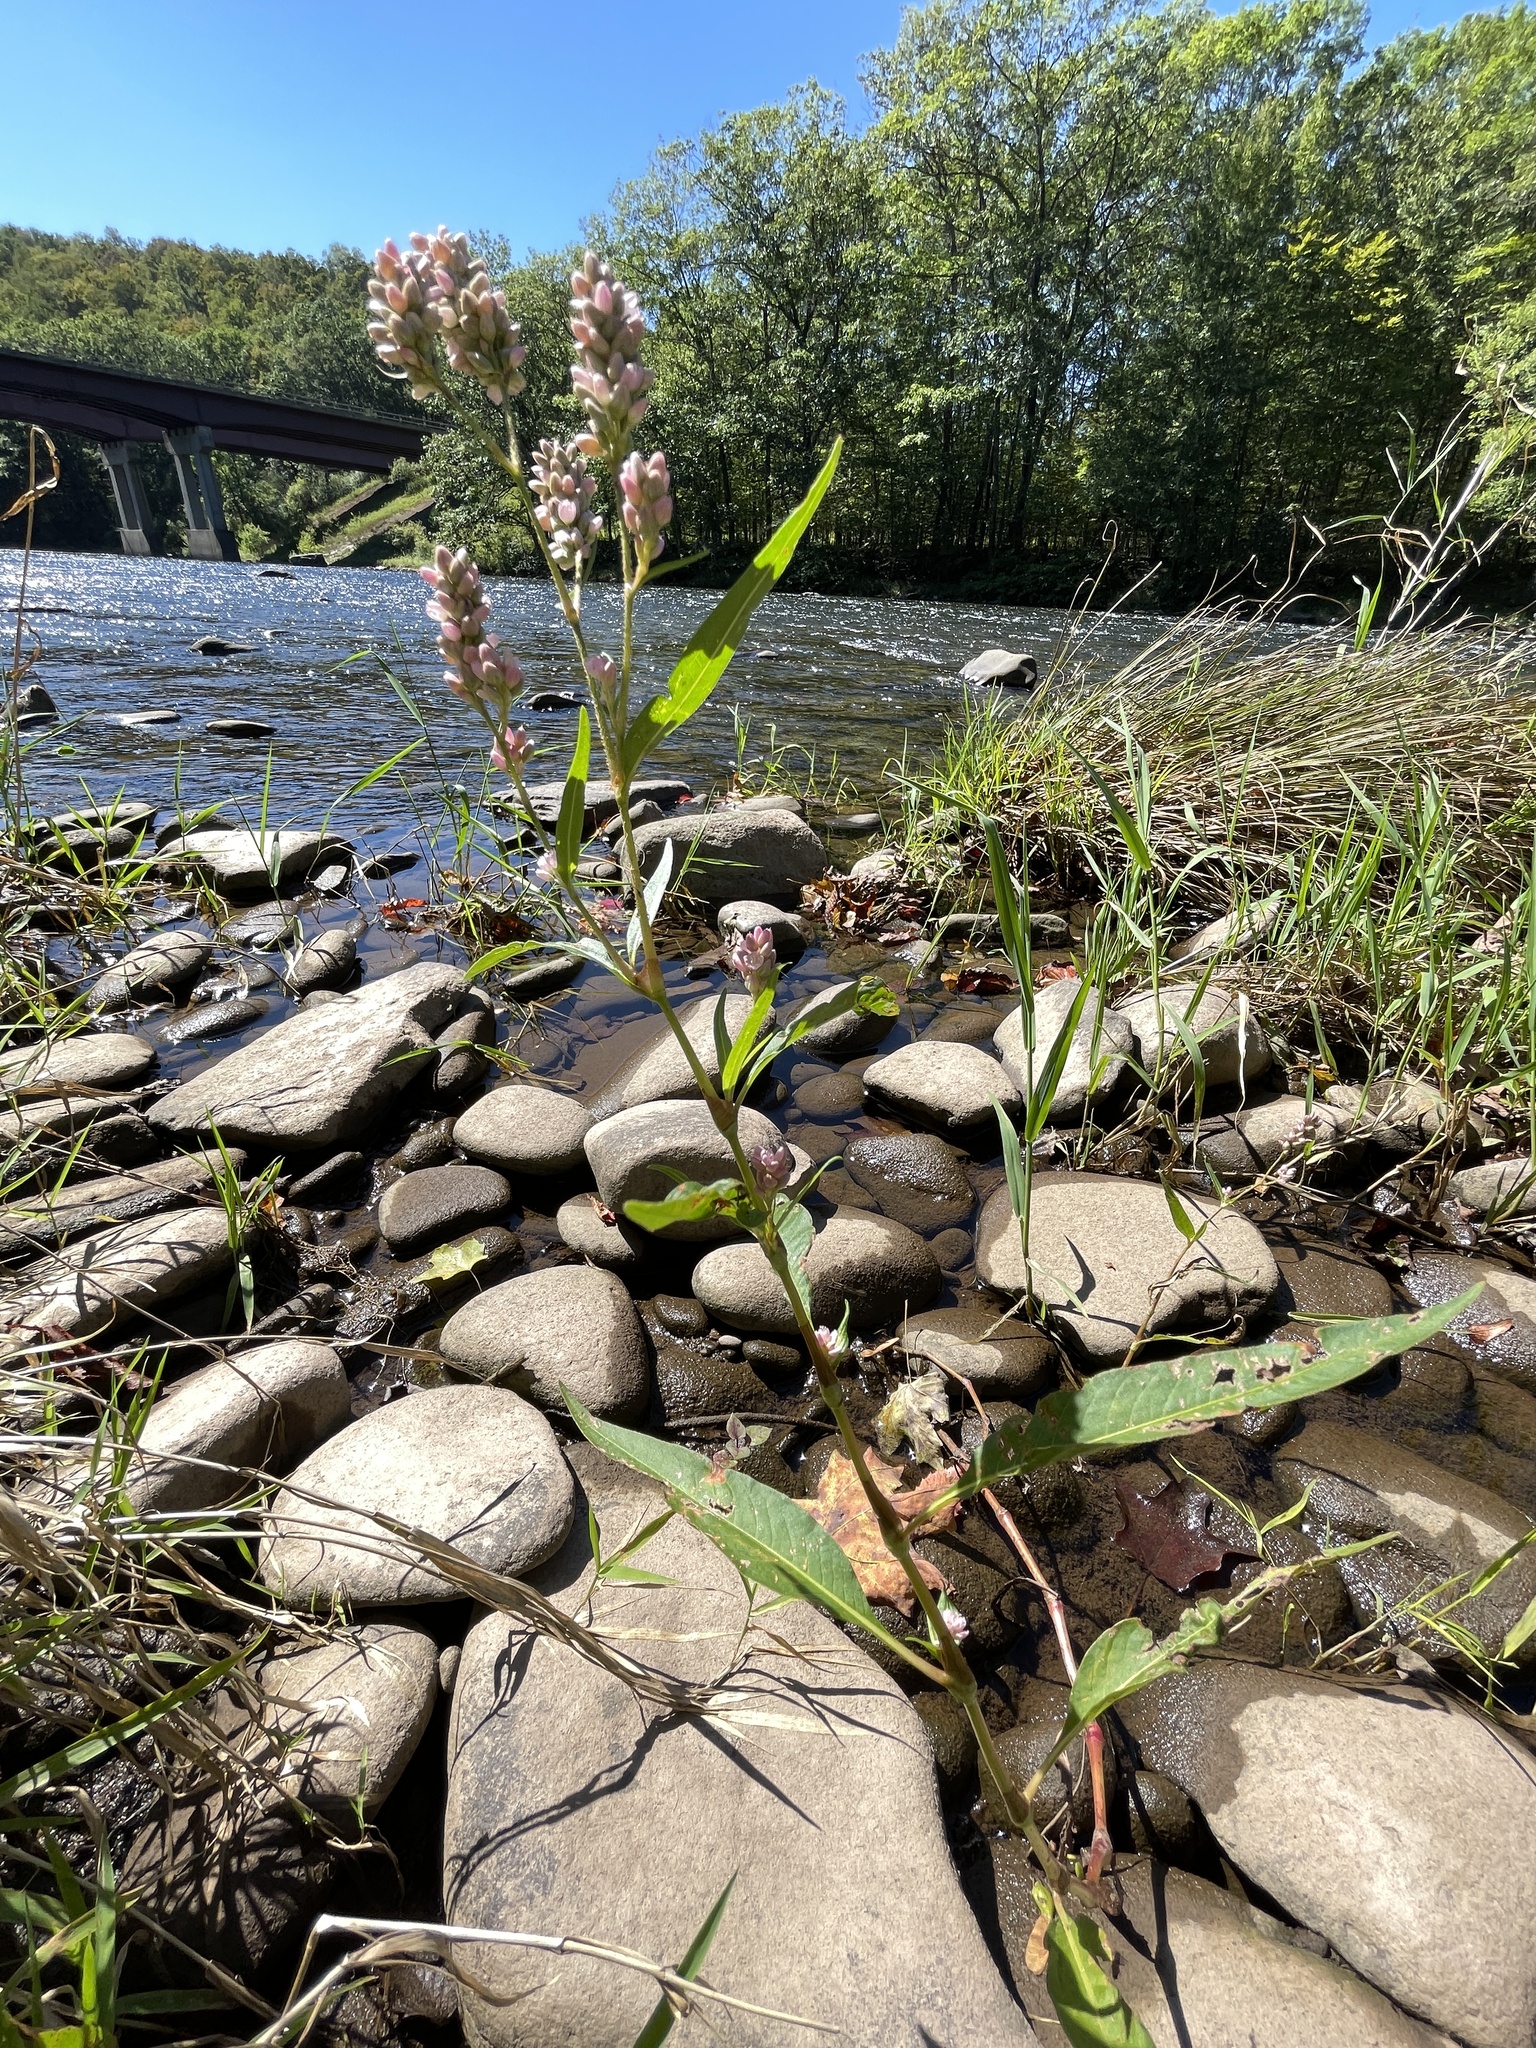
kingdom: Plantae
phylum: Tracheophyta
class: Magnoliopsida
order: Caryophyllales
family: Polygonaceae
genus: Persicaria
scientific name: Persicaria pensylvanica
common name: Pinkweed
